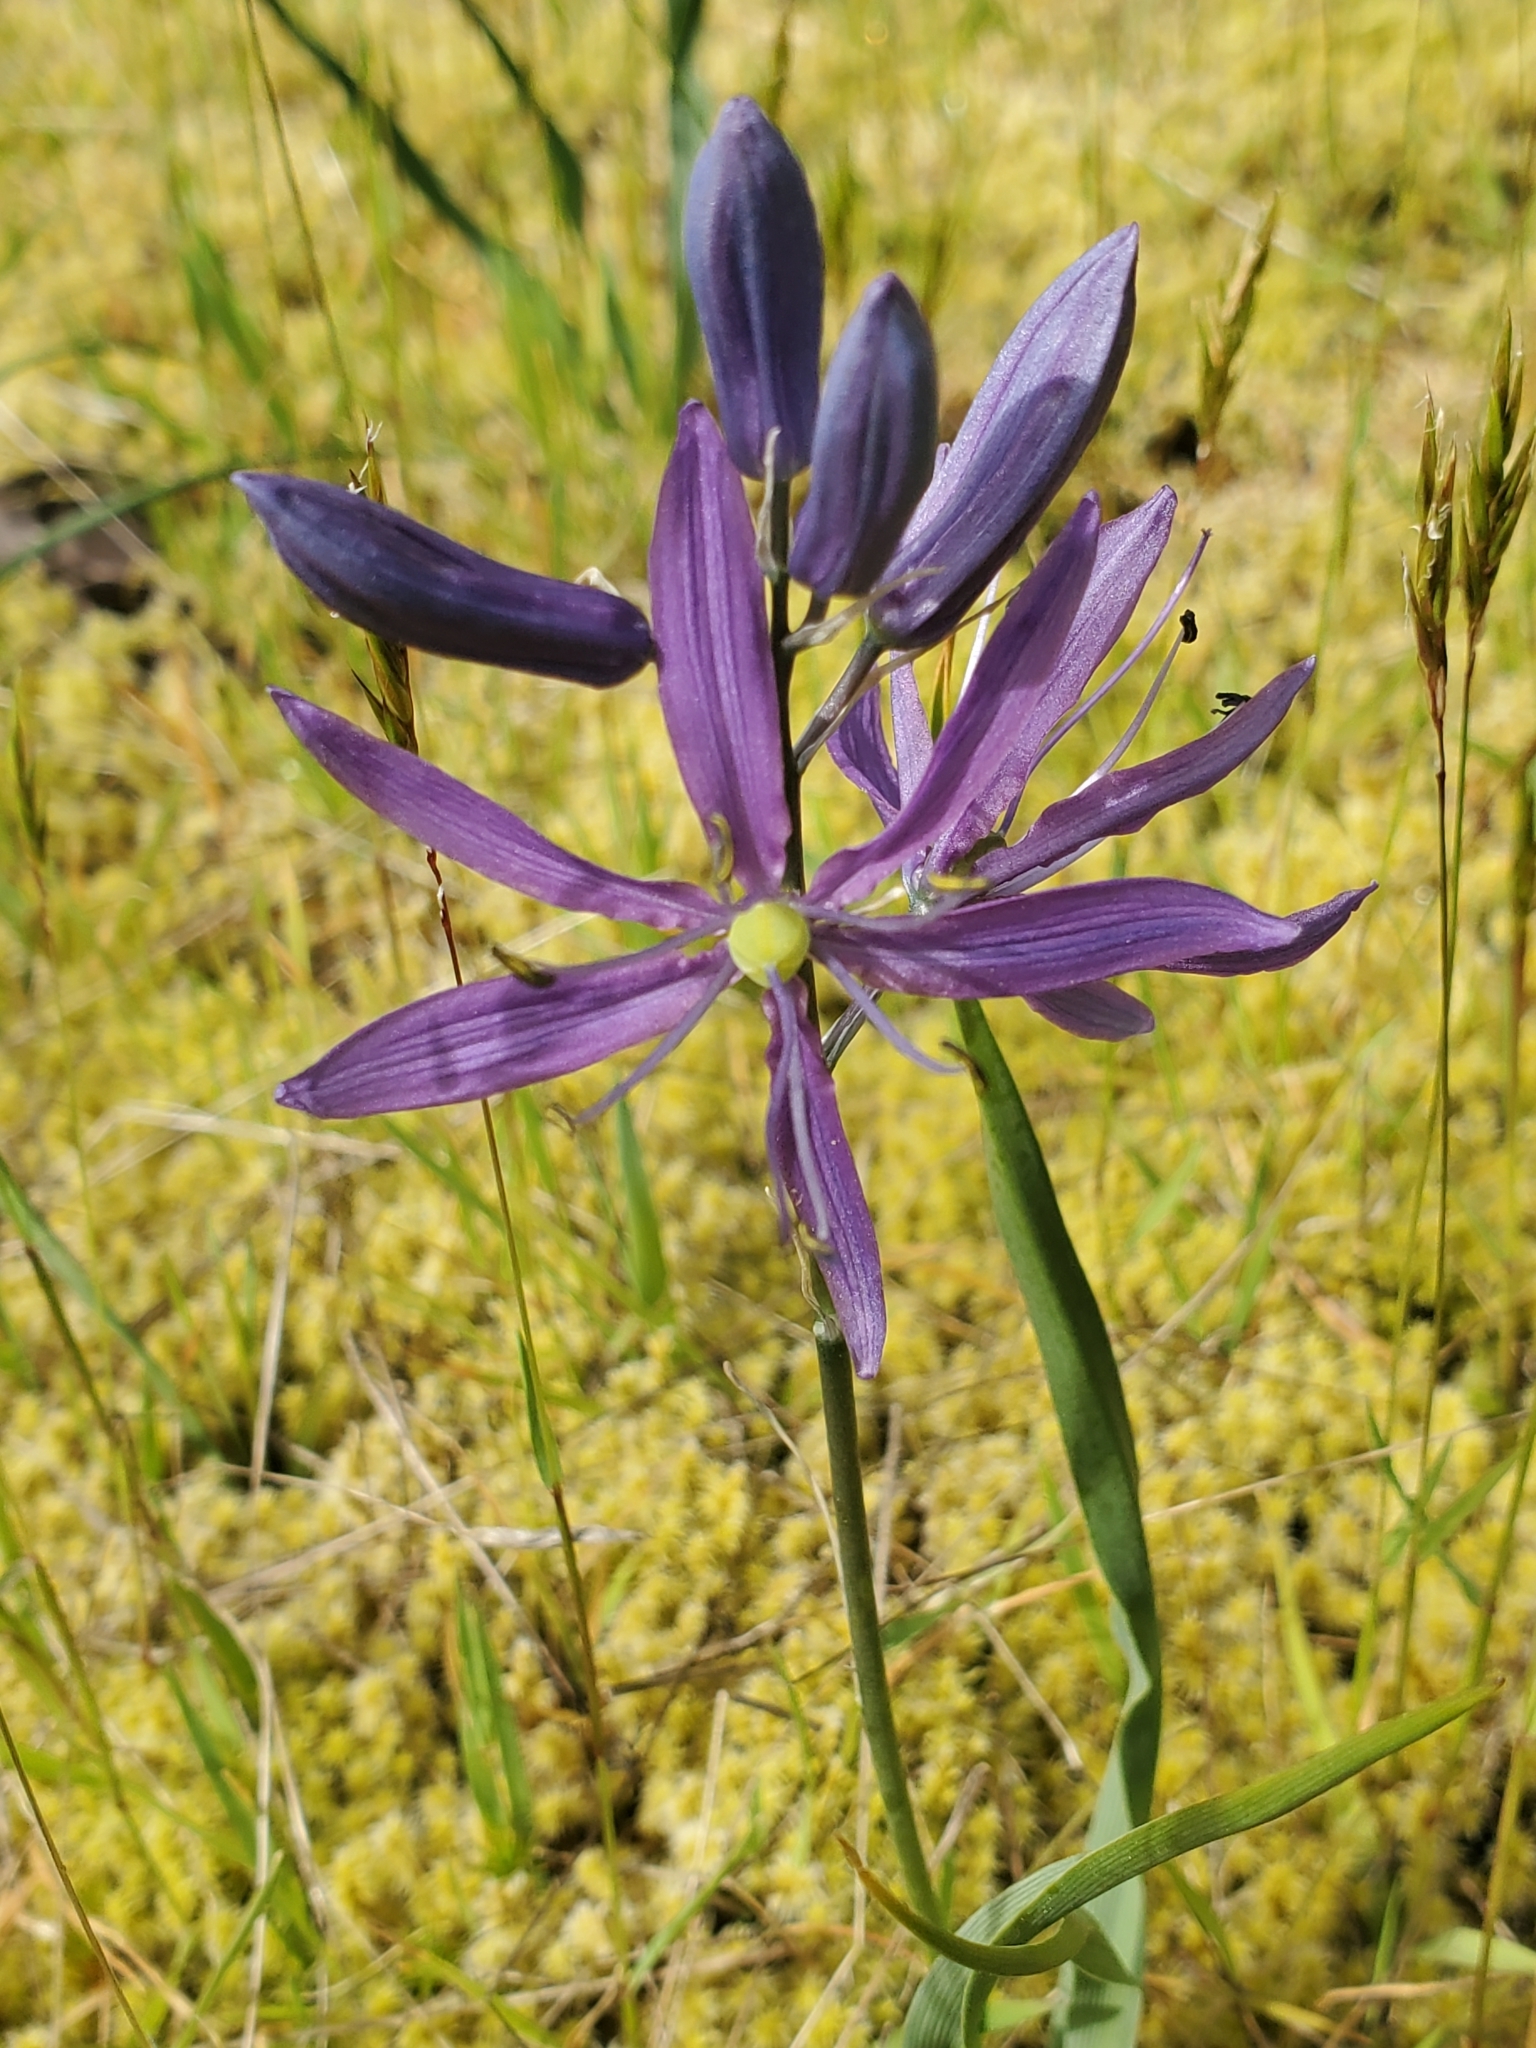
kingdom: Plantae
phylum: Tracheophyta
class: Liliopsida
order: Asparagales
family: Asparagaceae
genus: Camassia
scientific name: Camassia quamash
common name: Common camas
